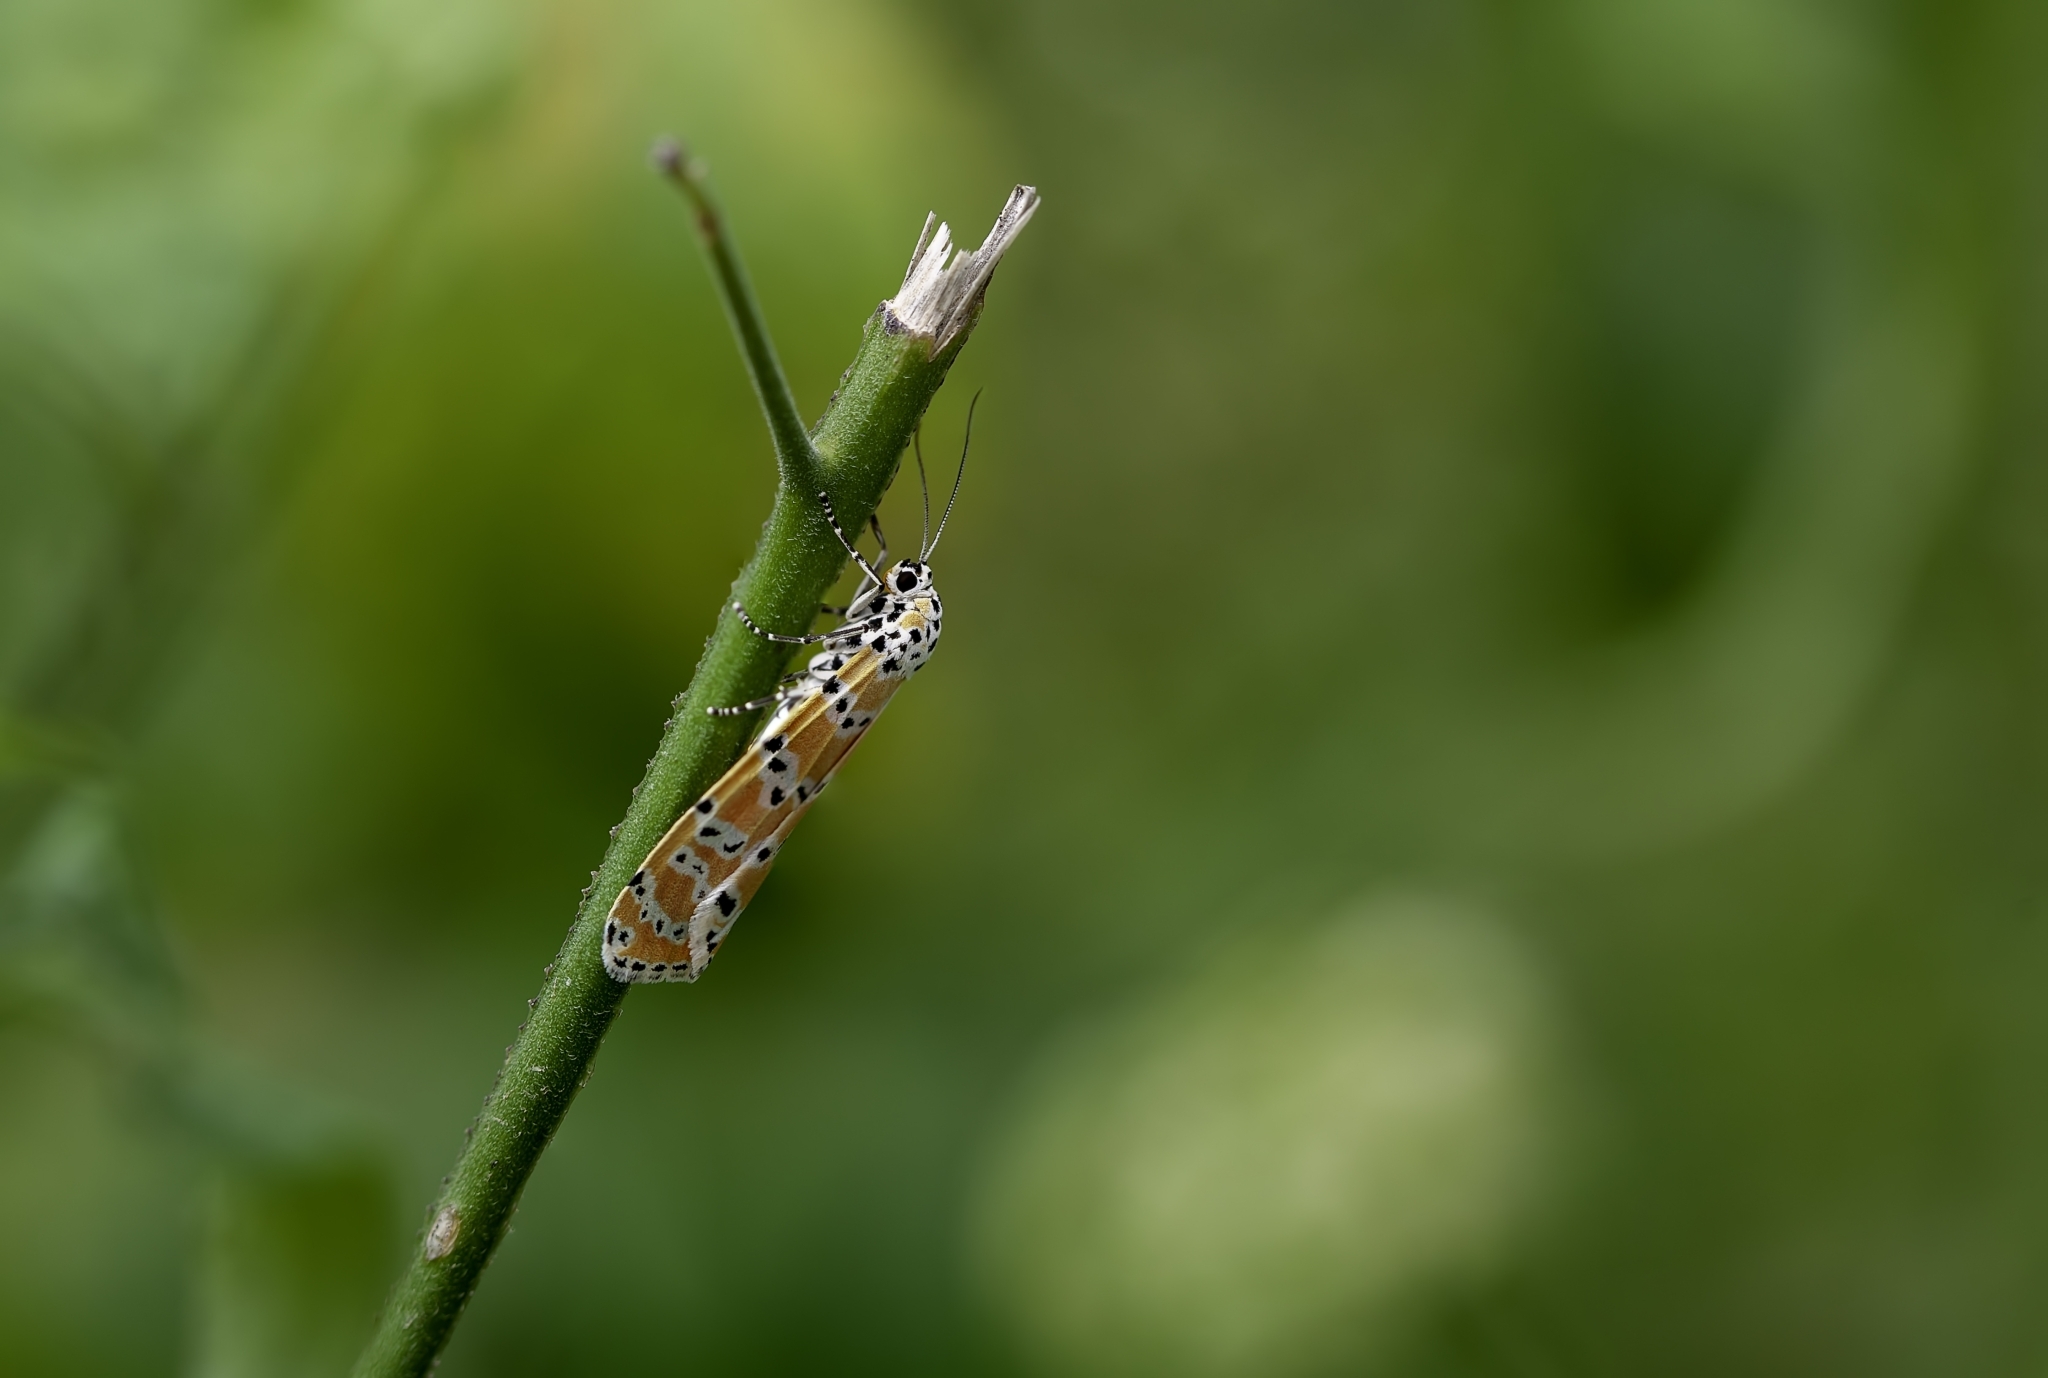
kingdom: Animalia
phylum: Arthropoda
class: Insecta
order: Lepidoptera
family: Erebidae
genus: Utetheisa
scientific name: Utetheisa ornatrix
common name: Beautiful utetheisa
